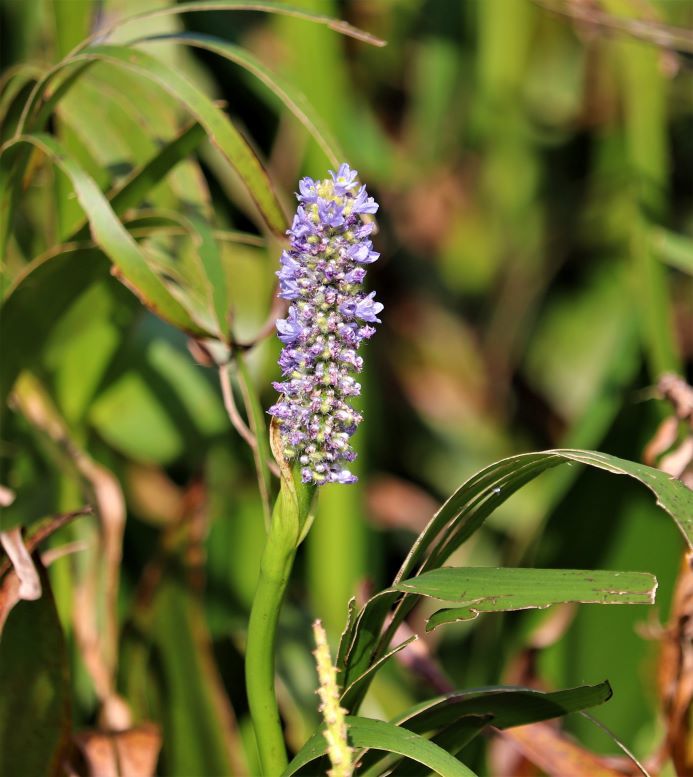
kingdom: Plantae
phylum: Tracheophyta
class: Liliopsida
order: Commelinales
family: Pontederiaceae
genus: Pontederia
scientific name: Pontederia cordata
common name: Pickerelweed
